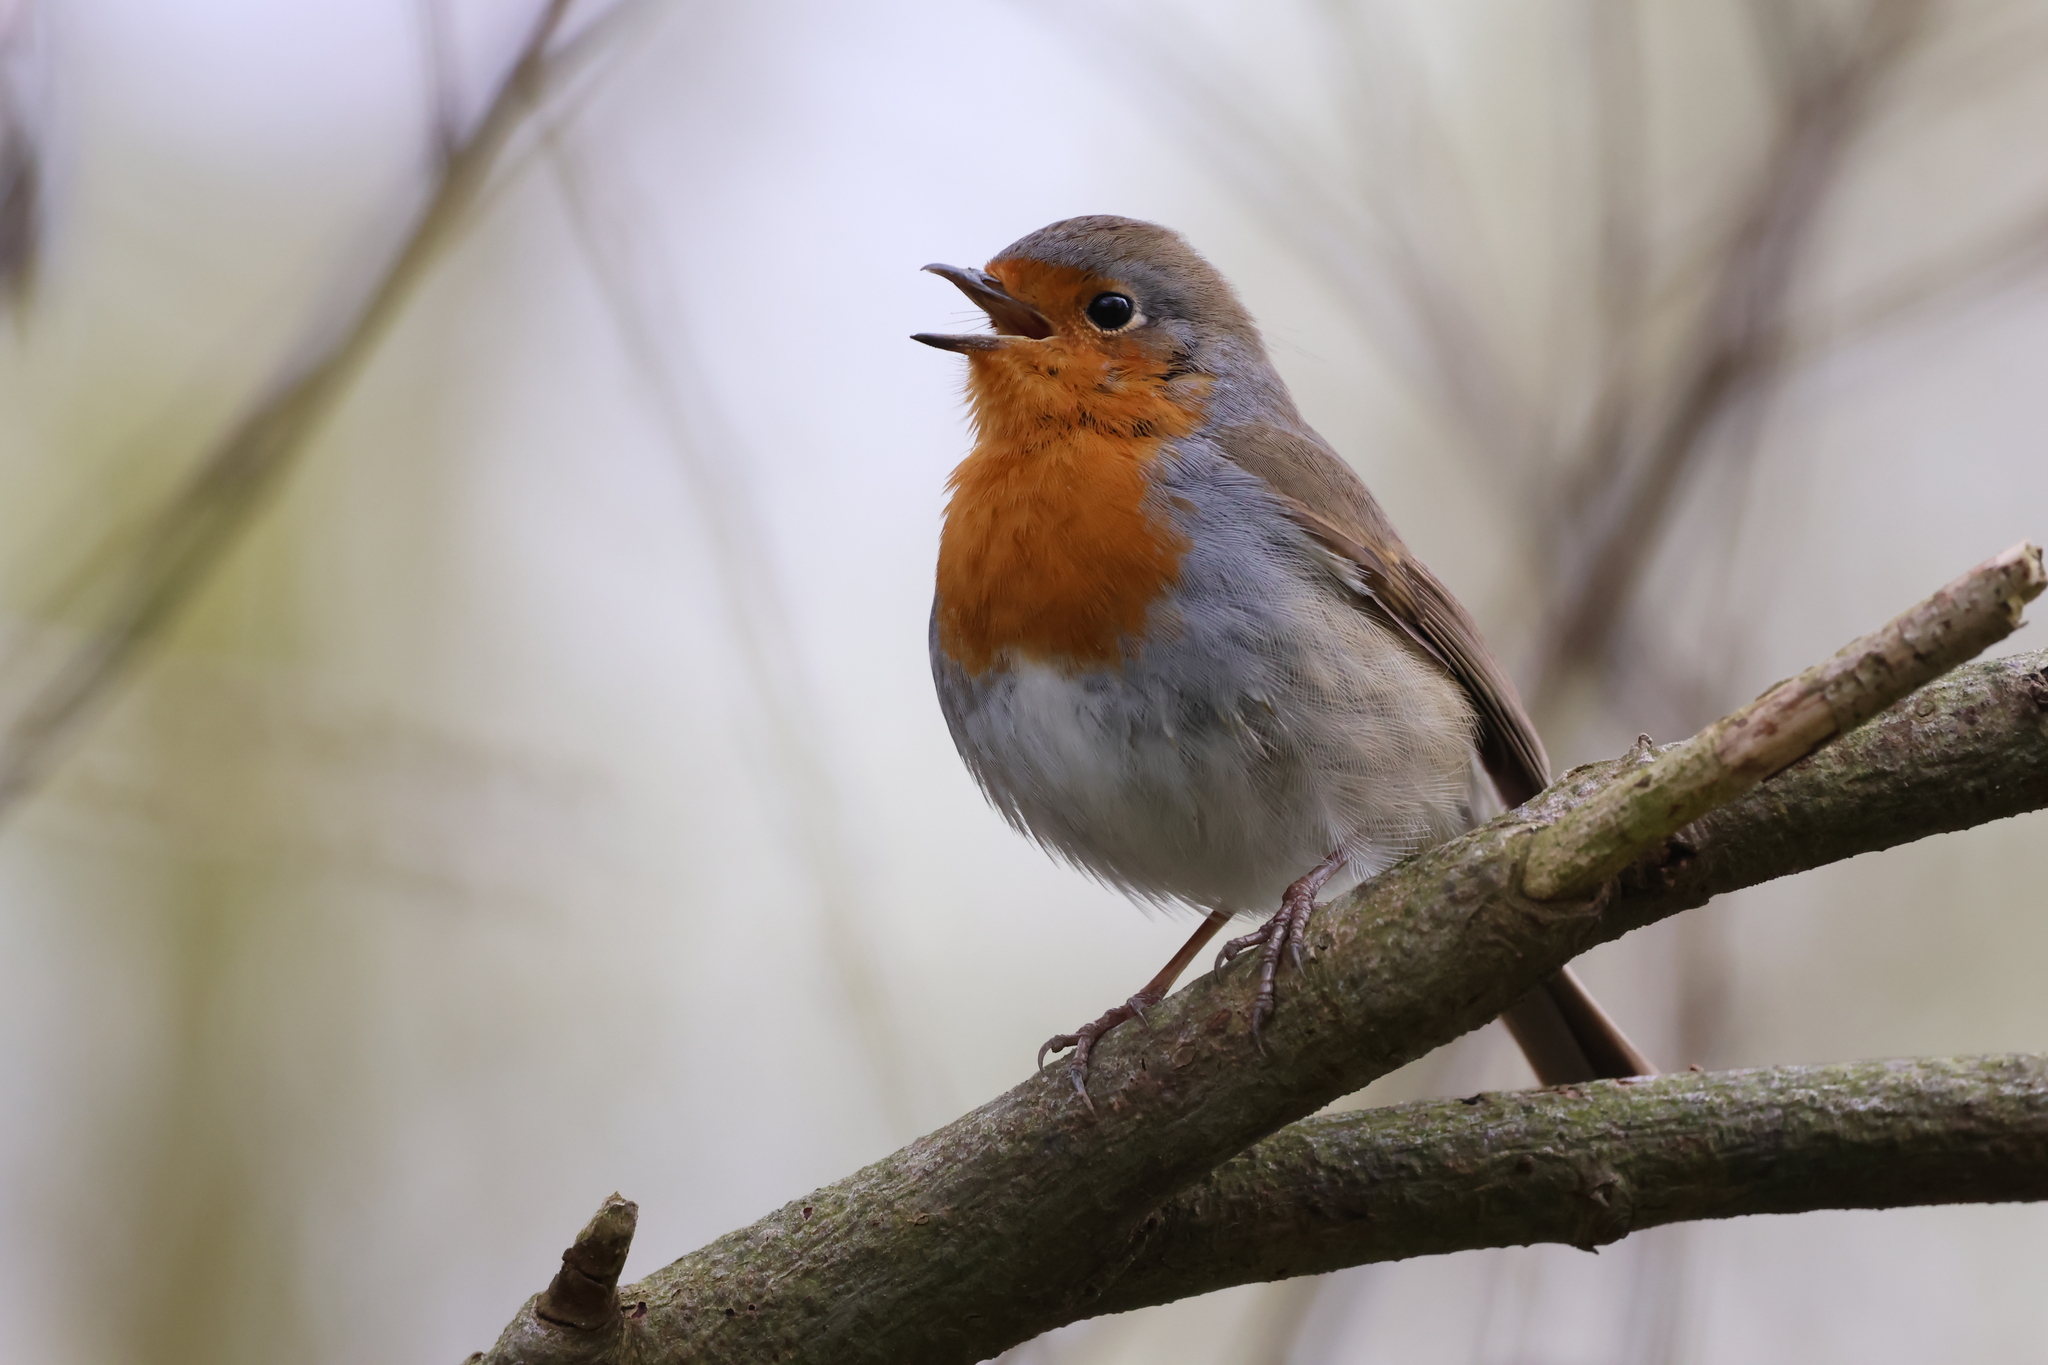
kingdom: Animalia
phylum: Chordata
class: Aves
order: Passeriformes
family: Muscicapidae
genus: Erithacus
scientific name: Erithacus rubecula
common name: European robin
